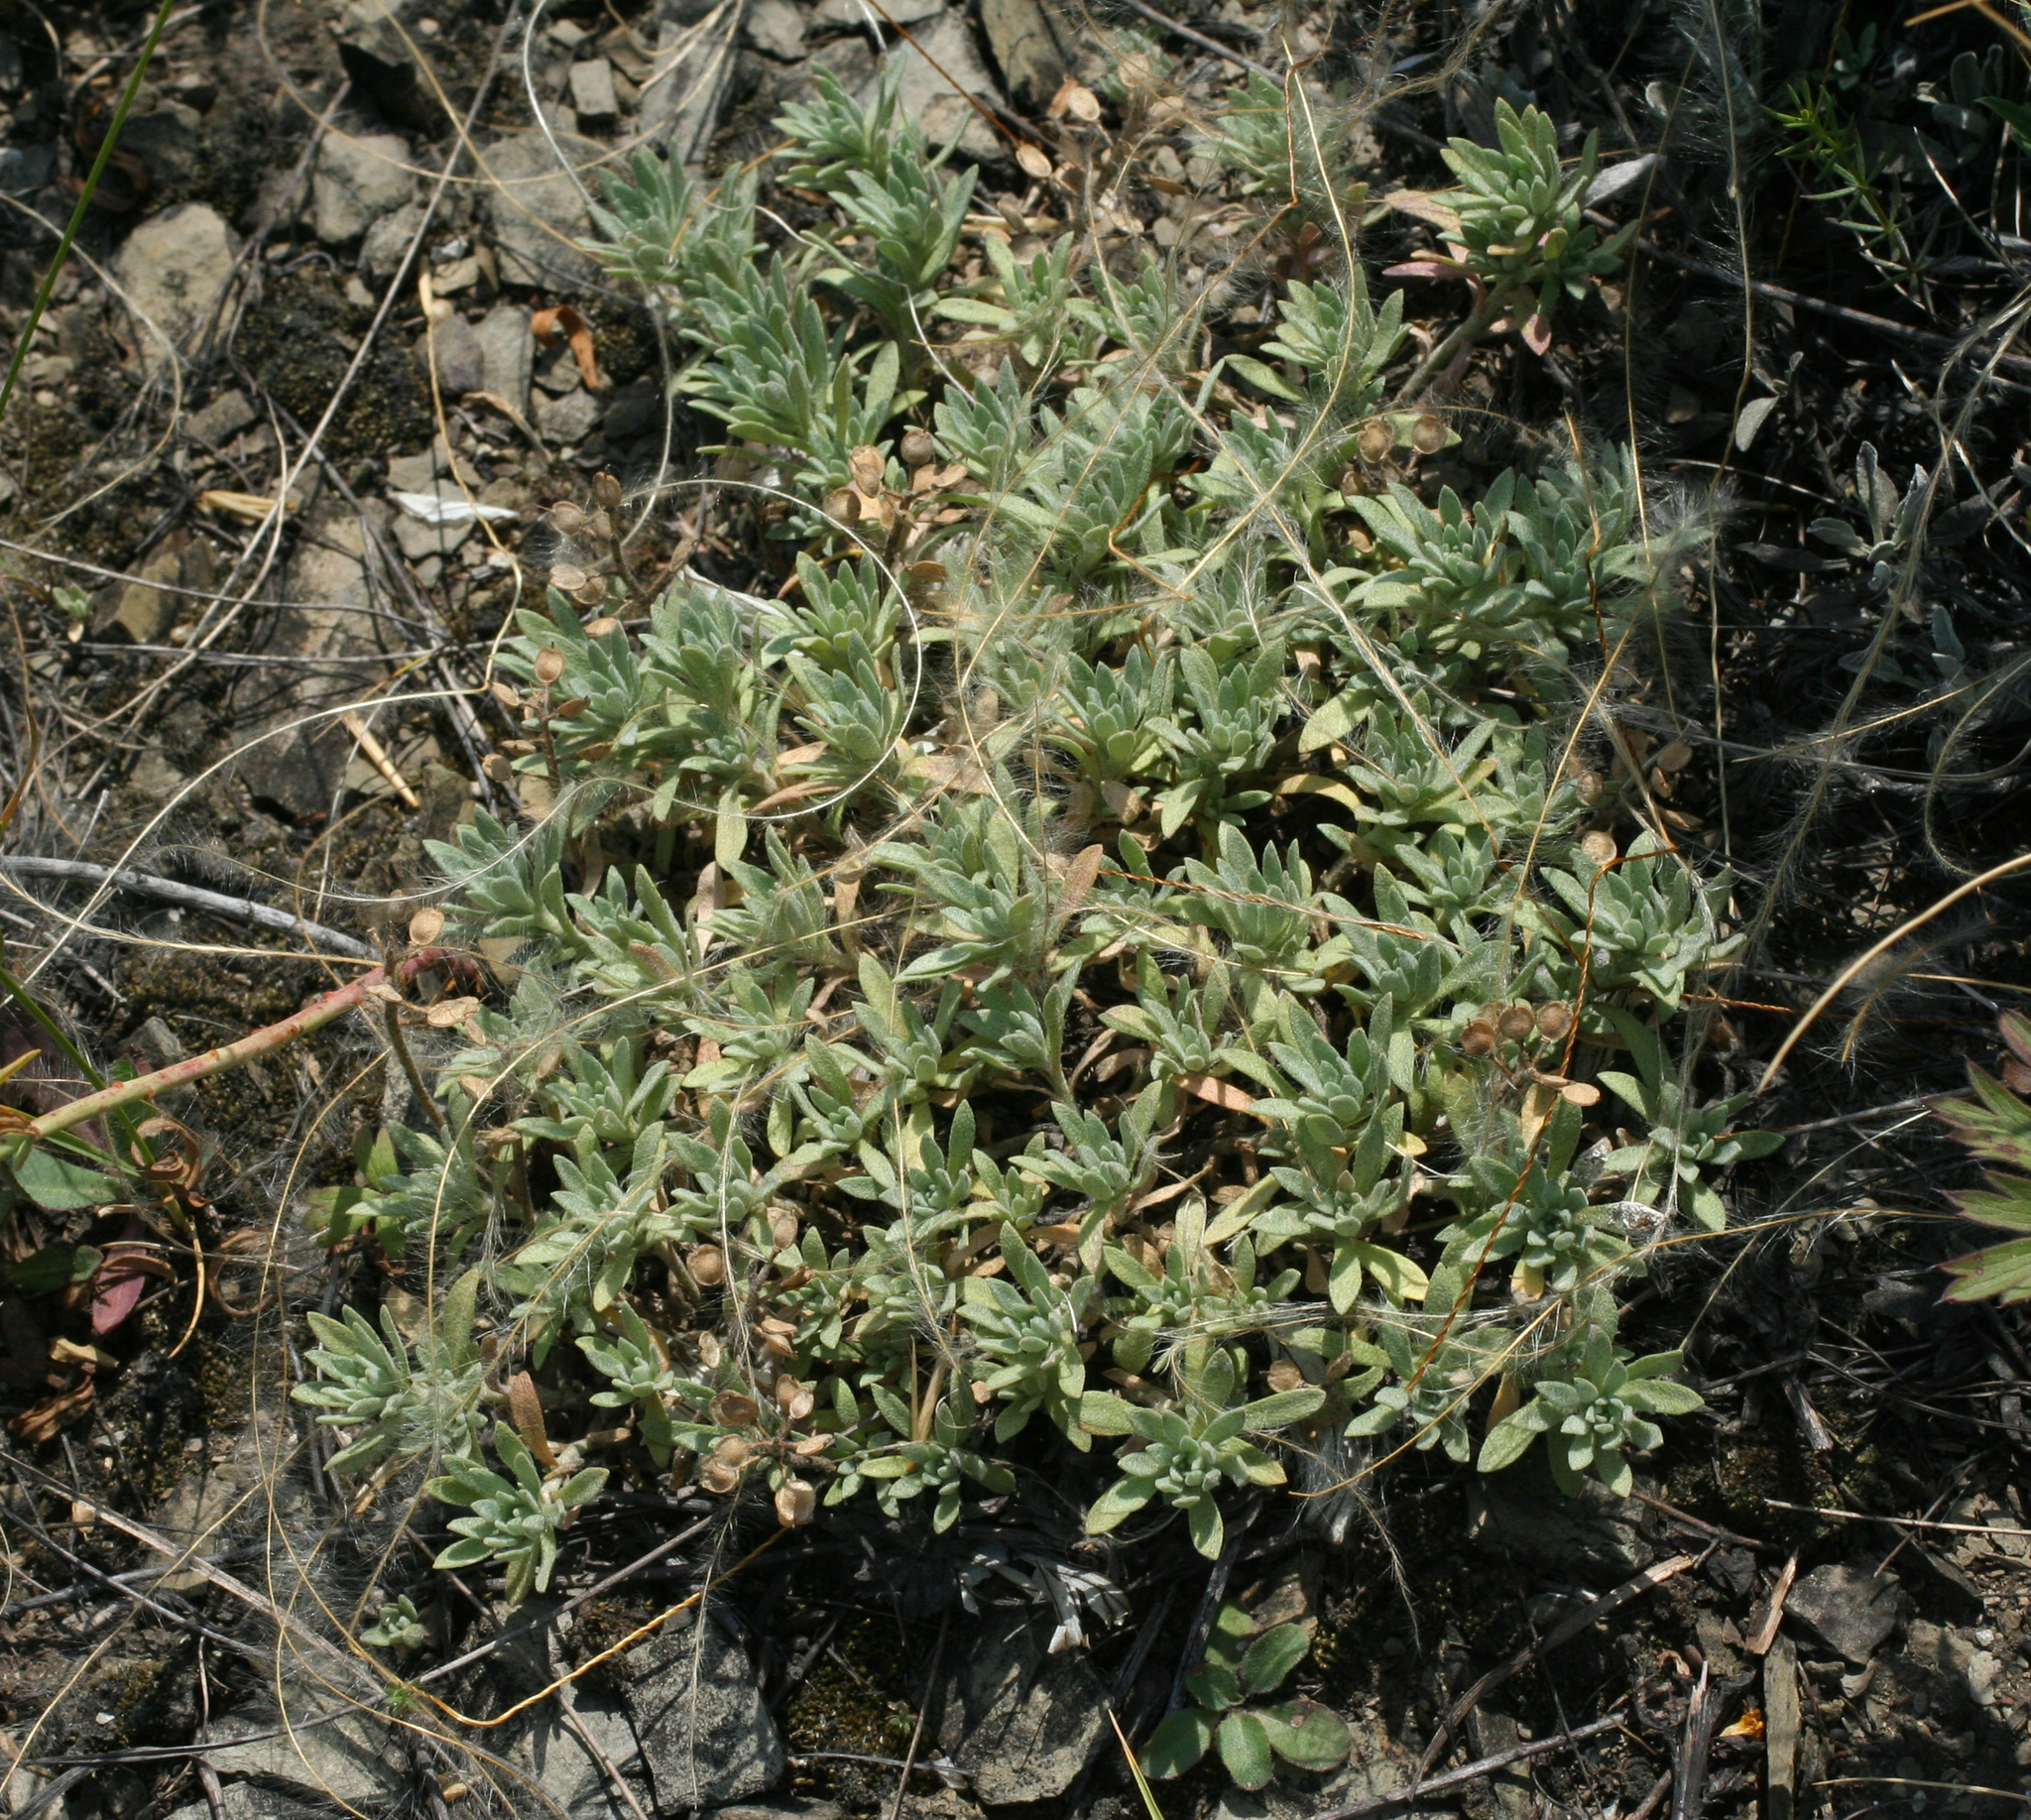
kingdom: Plantae
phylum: Tracheophyta
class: Magnoliopsida
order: Brassicales
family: Brassicaceae
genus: Alyssum
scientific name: Alyssum lenense
